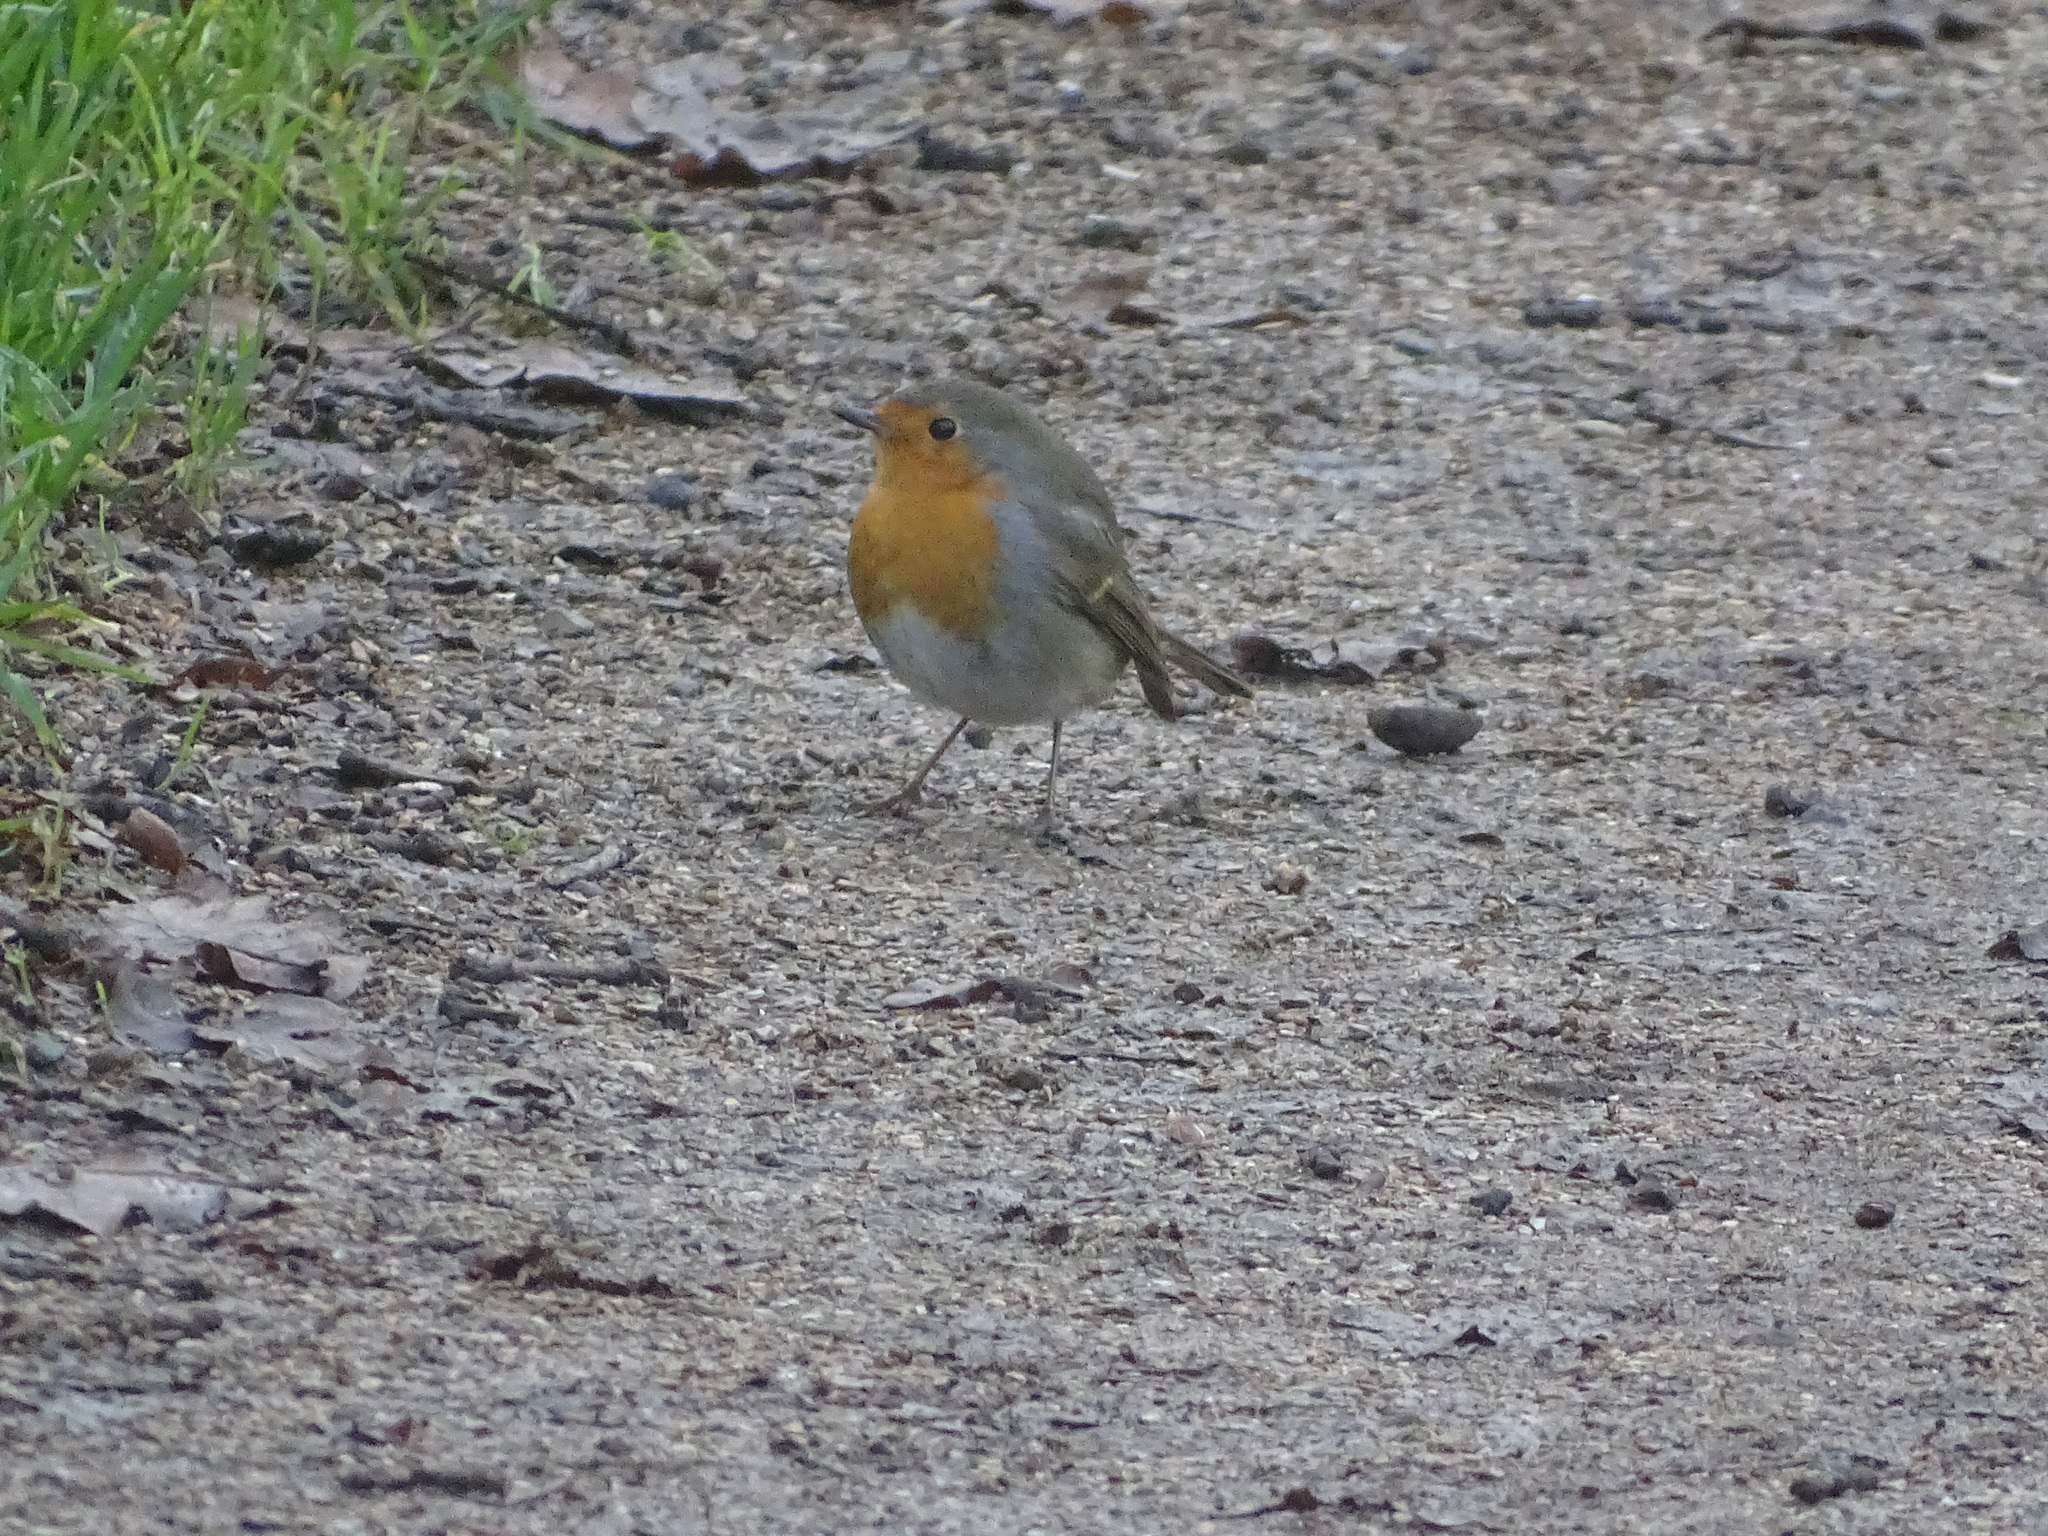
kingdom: Animalia
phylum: Chordata
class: Aves
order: Passeriformes
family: Muscicapidae
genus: Erithacus
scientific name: Erithacus rubecula
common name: European robin
